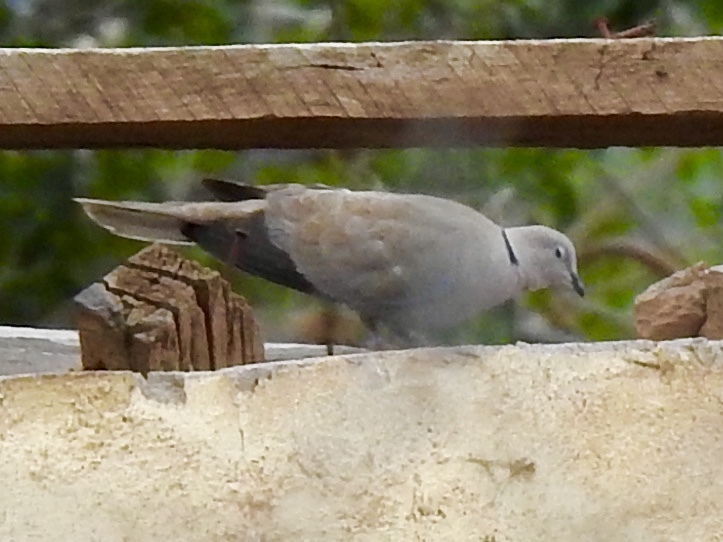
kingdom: Animalia
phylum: Chordata
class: Aves
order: Columbiformes
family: Columbidae
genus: Streptopelia
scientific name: Streptopelia decaocto
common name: Eurasian collared dove
